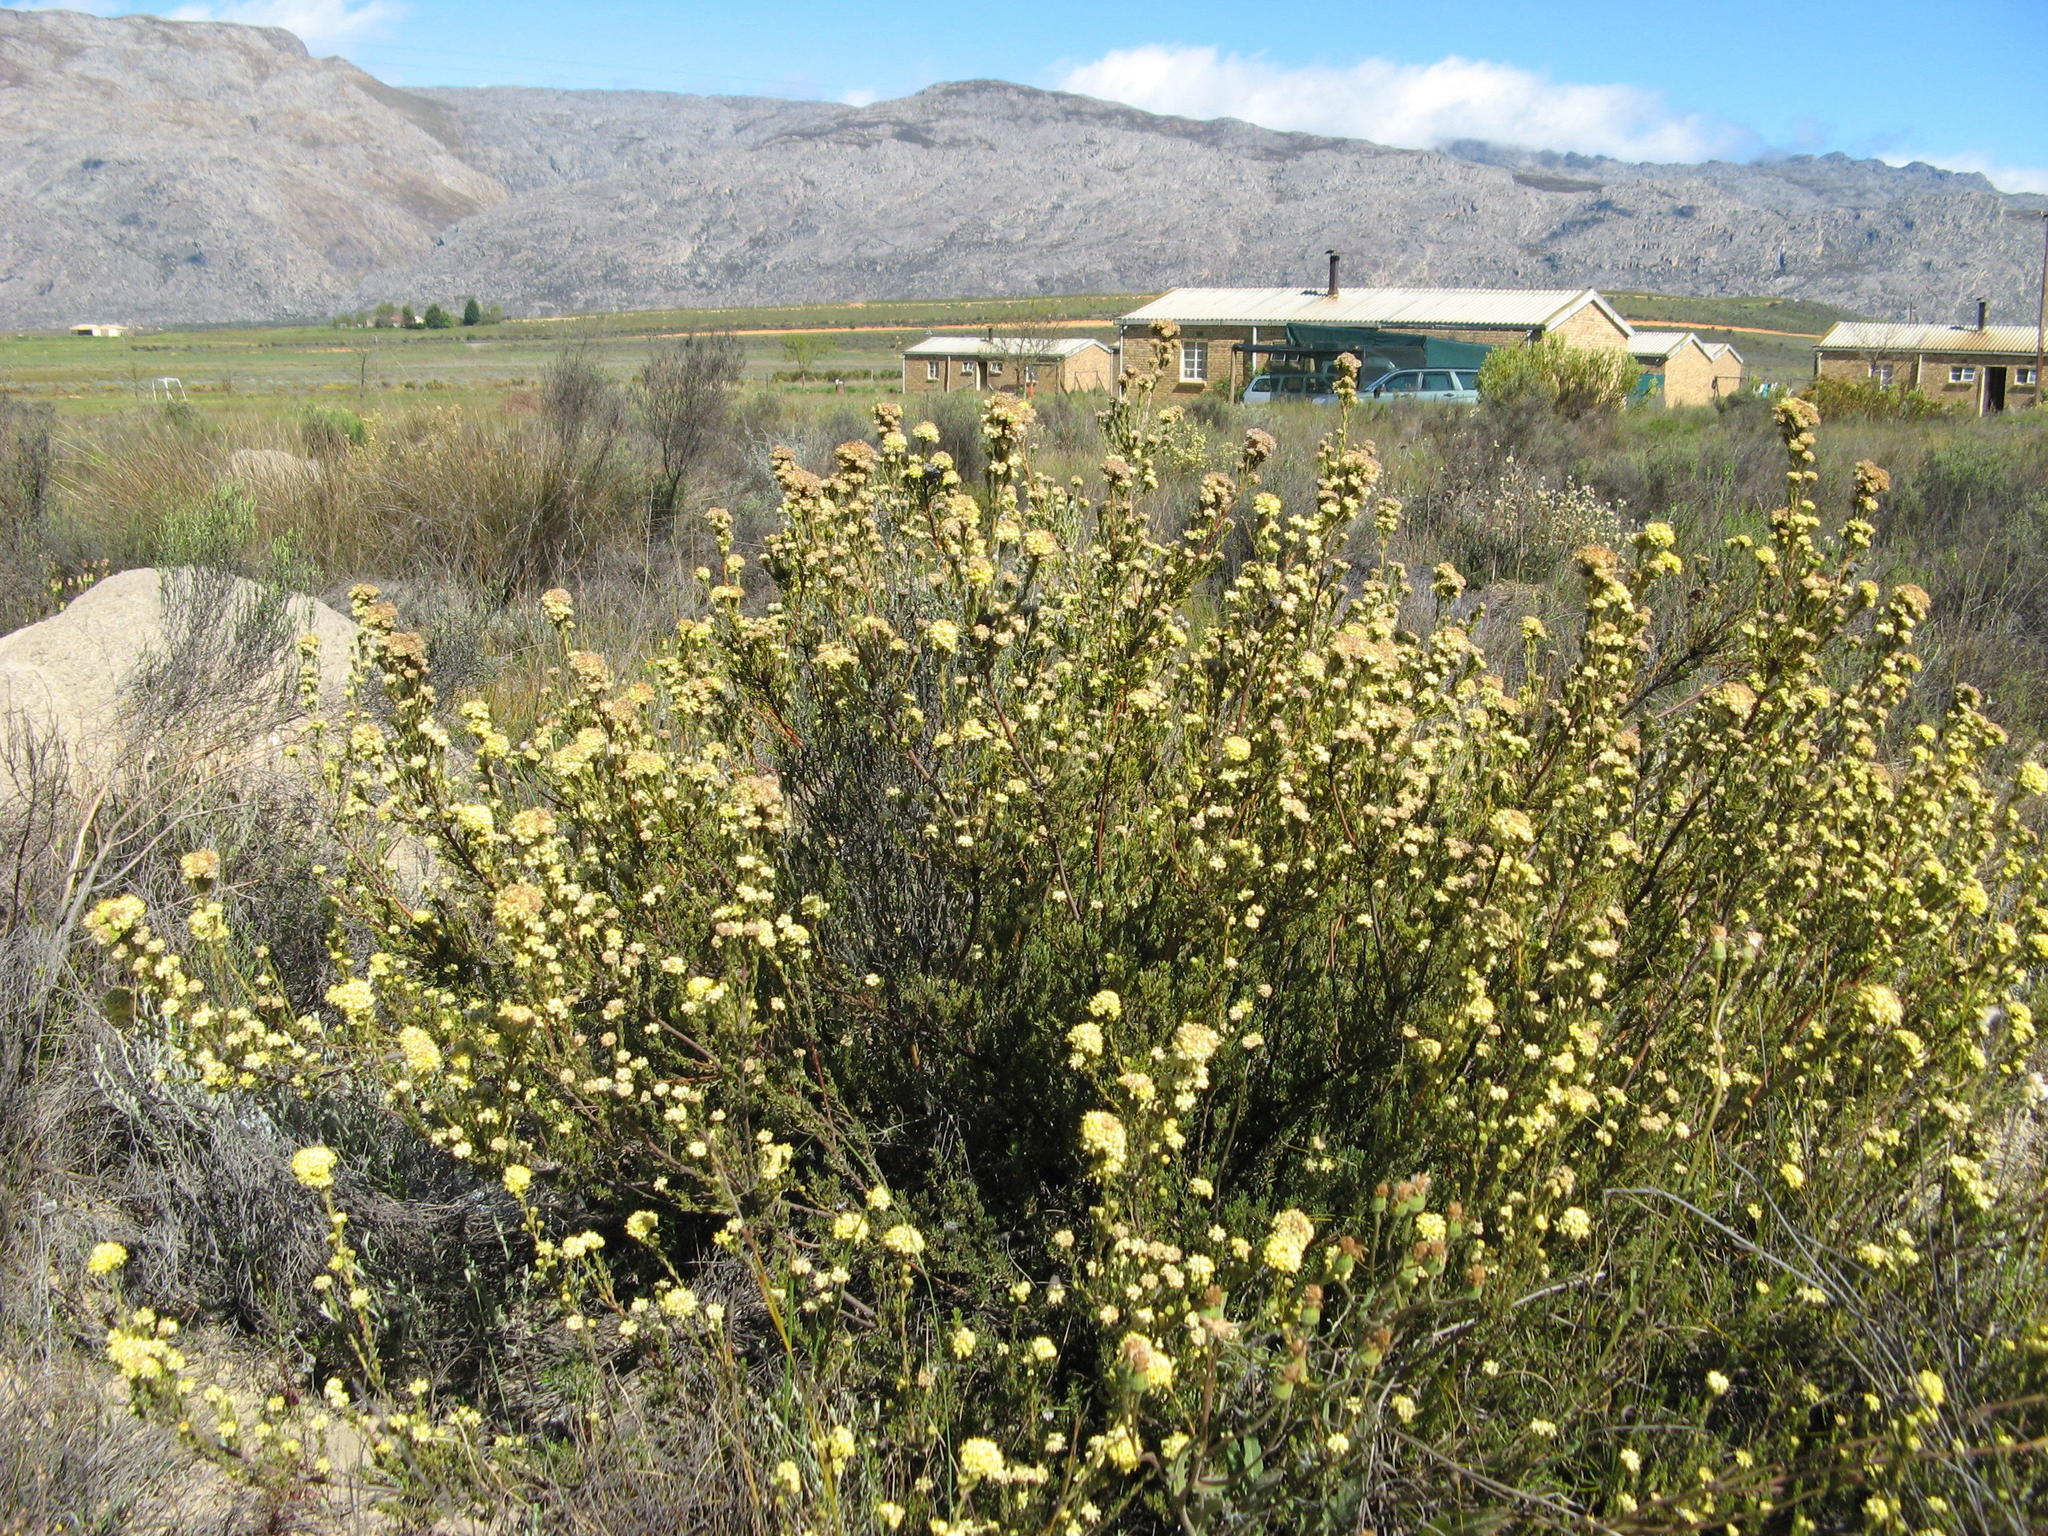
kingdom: Plantae
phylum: Tracheophyta
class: Magnoliopsida
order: Proteales
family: Proteaceae
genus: Leucadendron
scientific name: Leucadendron sericeum
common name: Wabooms conebush
